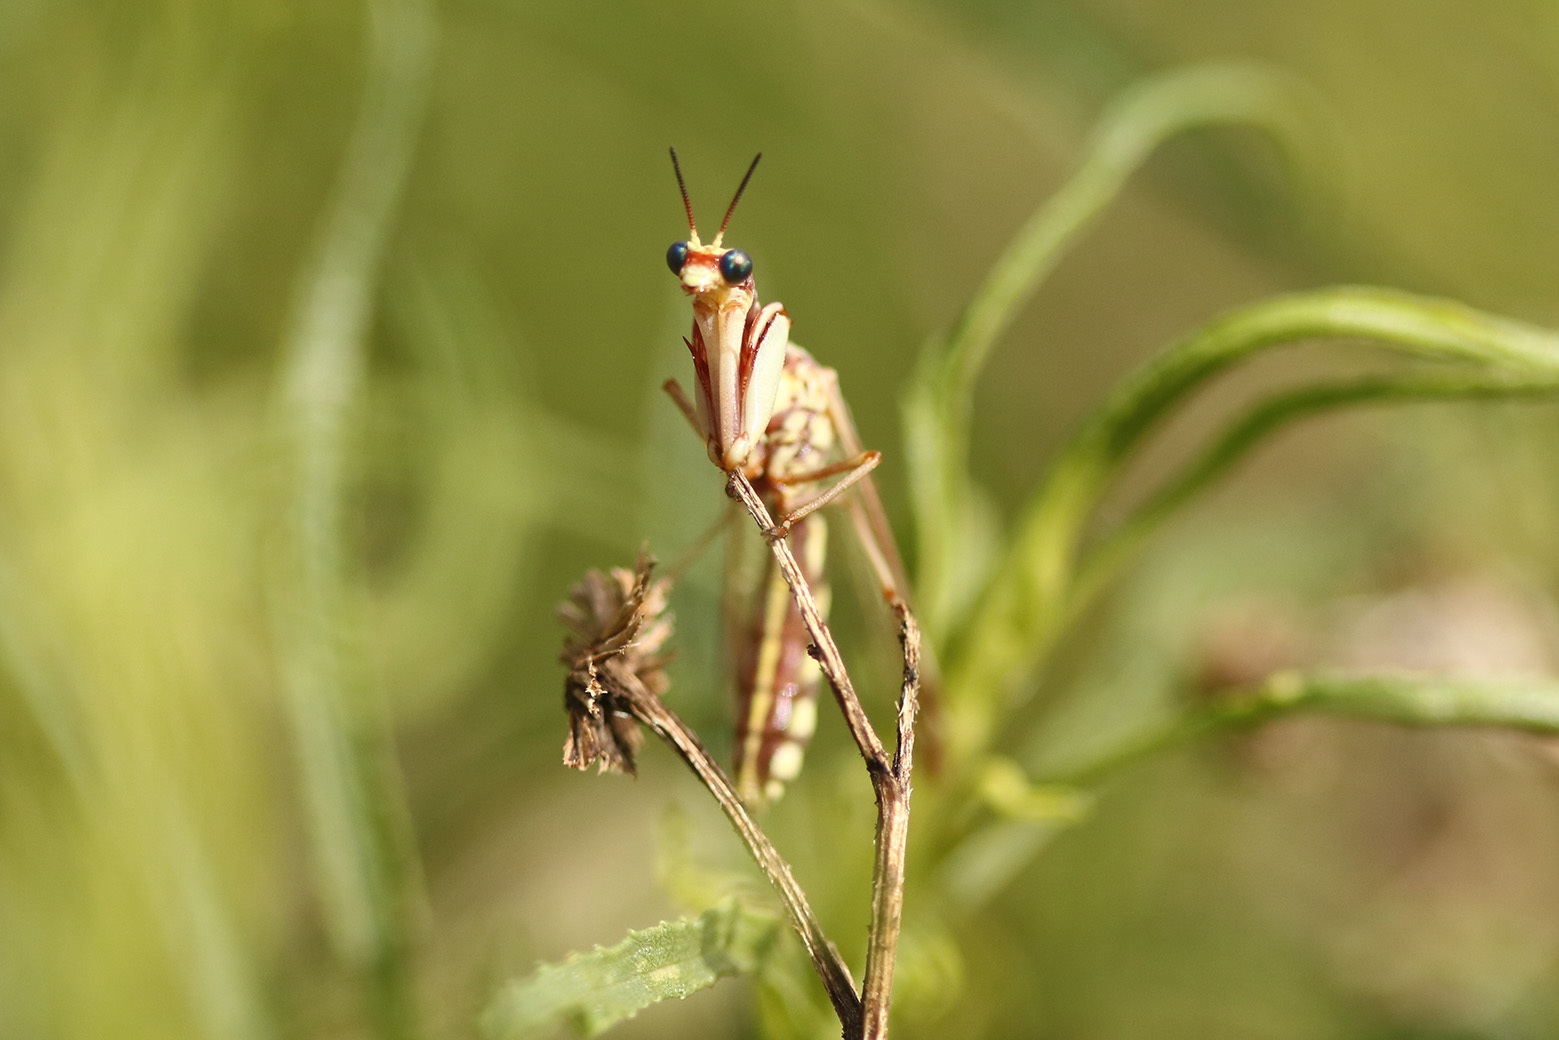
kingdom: Animalia
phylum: Arthropoda
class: Insecta
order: Neuroptera
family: Mantispidae
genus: Paramantispa
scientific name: Paramantispa prolixa
